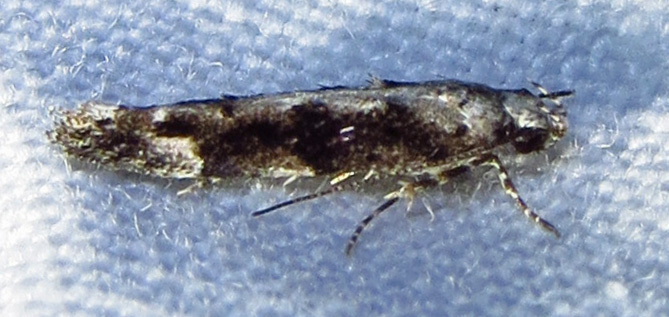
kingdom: Animalia
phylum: Arthropoda
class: Insecta
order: Lepidoptera
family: Gelechiidae
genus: Coleotechnites
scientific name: Coleotechnites florae
